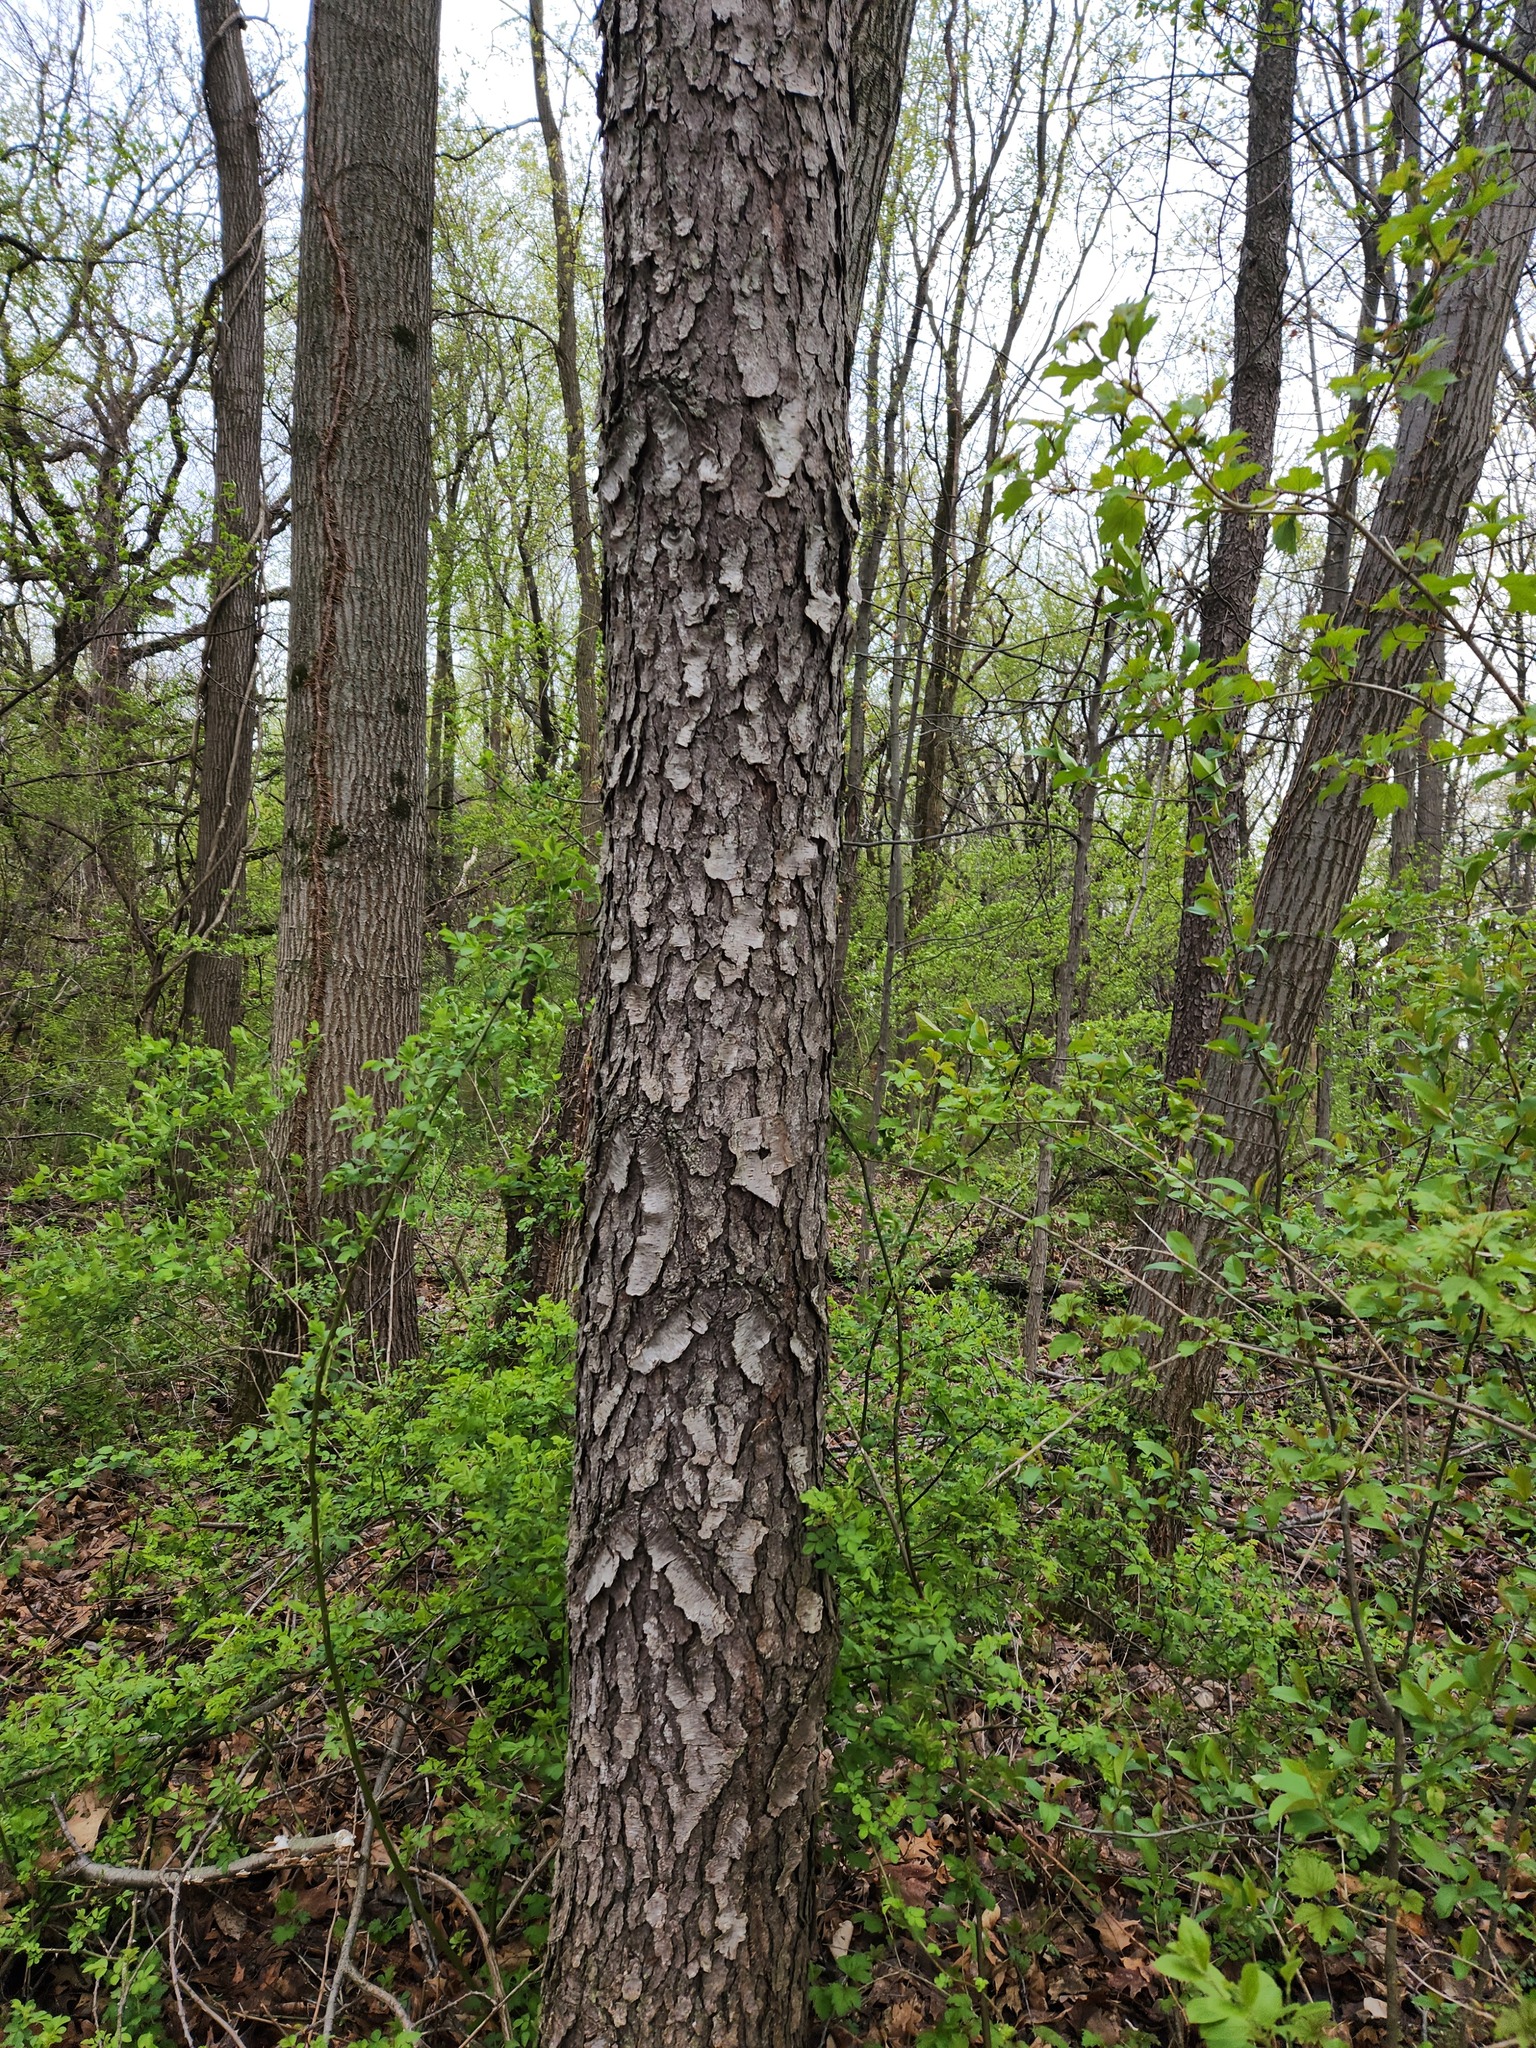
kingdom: Plantae
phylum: Tracheophyta
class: Magnoliopsida
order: Rosales
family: Rosaceae
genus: Prunus
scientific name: Prunus serotina
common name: Black cherry
